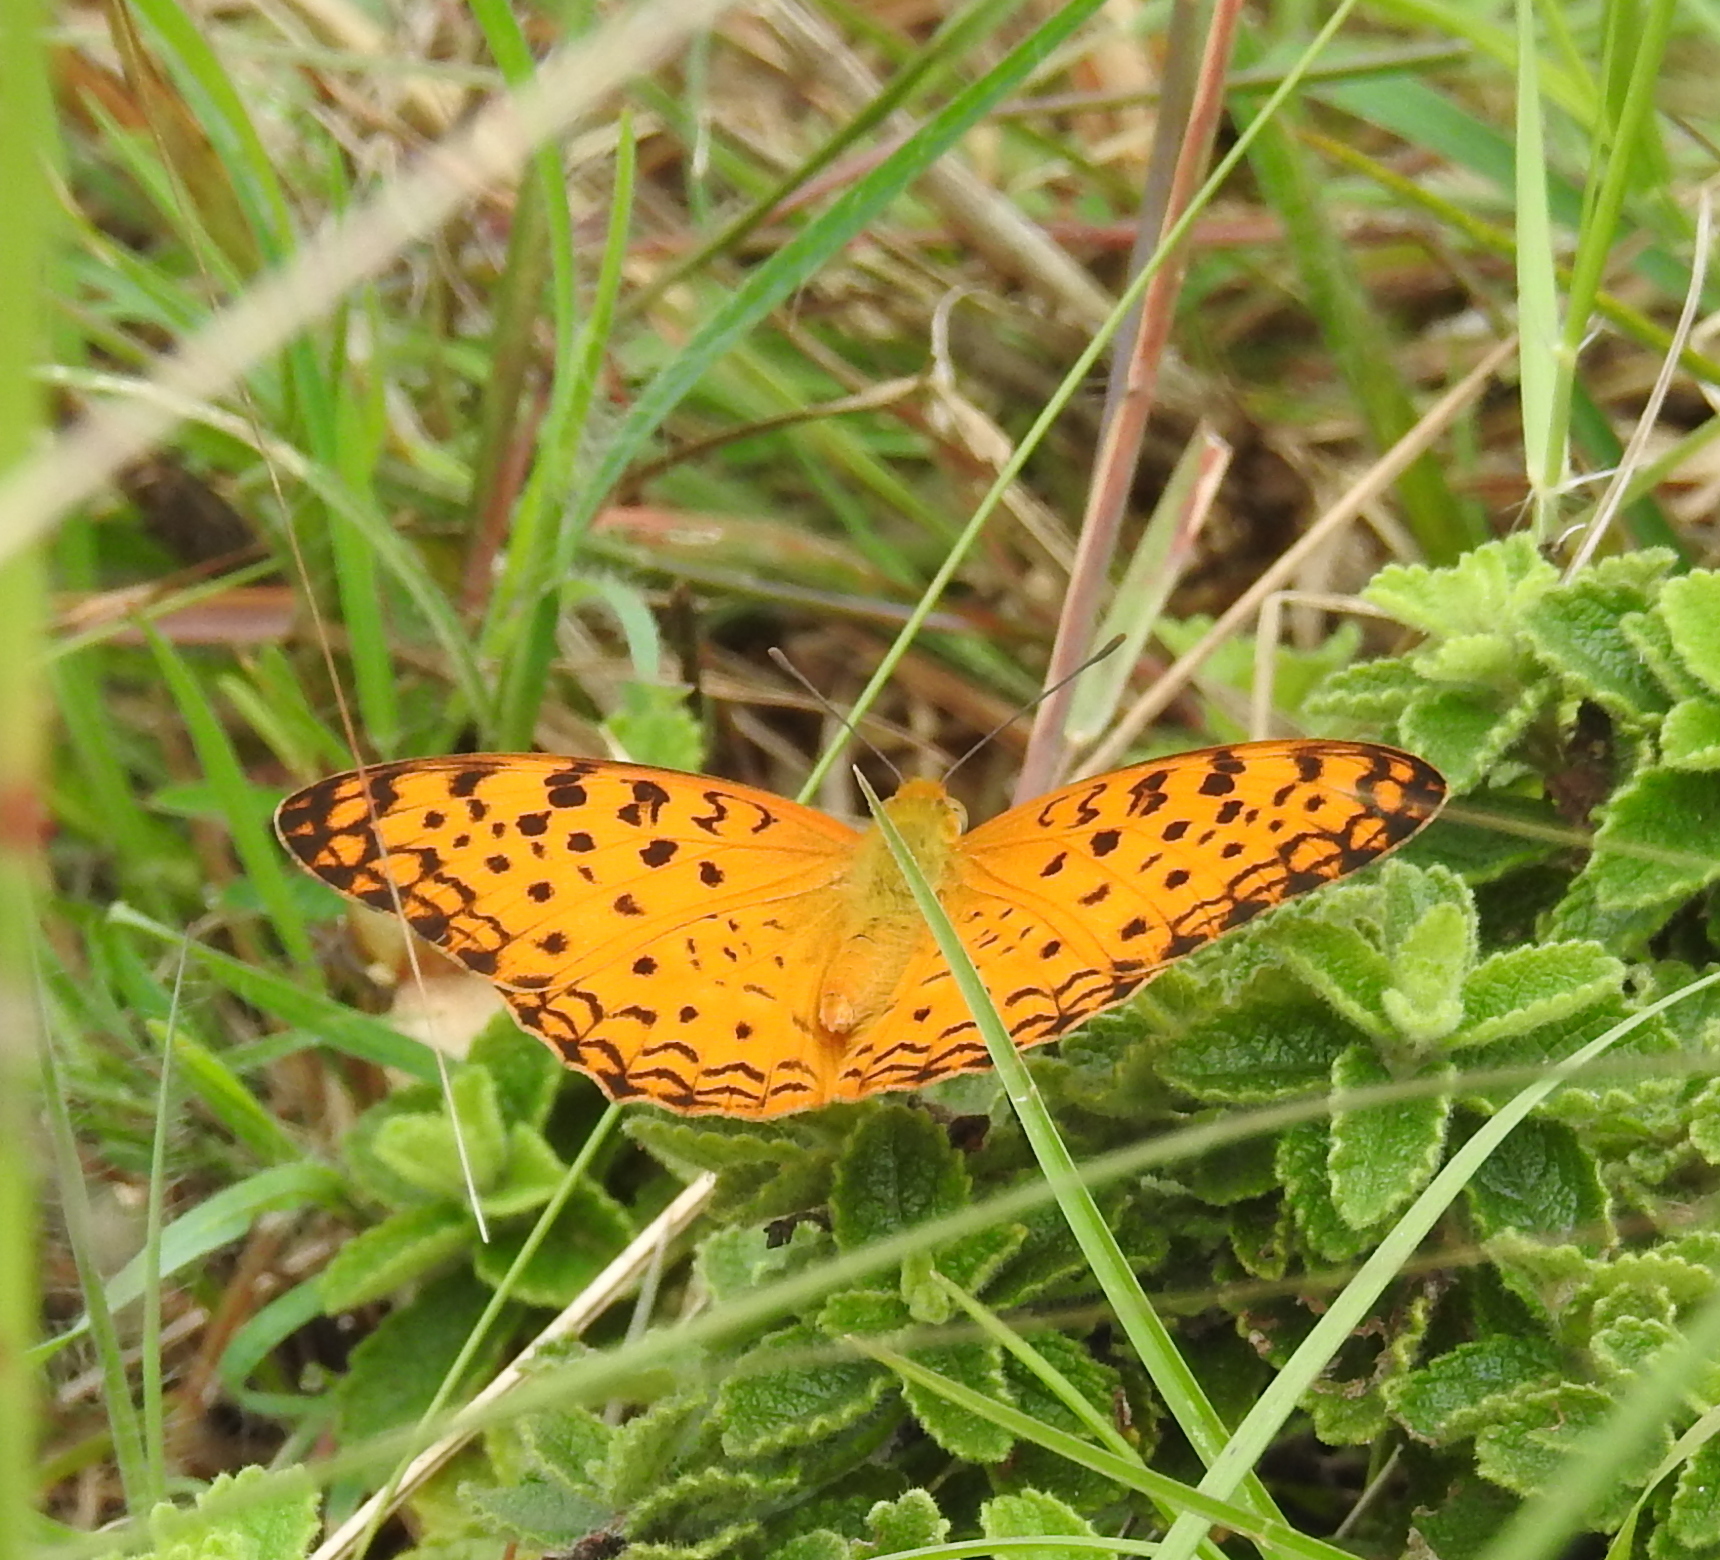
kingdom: Animalia
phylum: Arthropoda
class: Insecta
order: Lepidoptera
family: Nymphalidae
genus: Phalanta
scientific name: Phalanta phalantha
